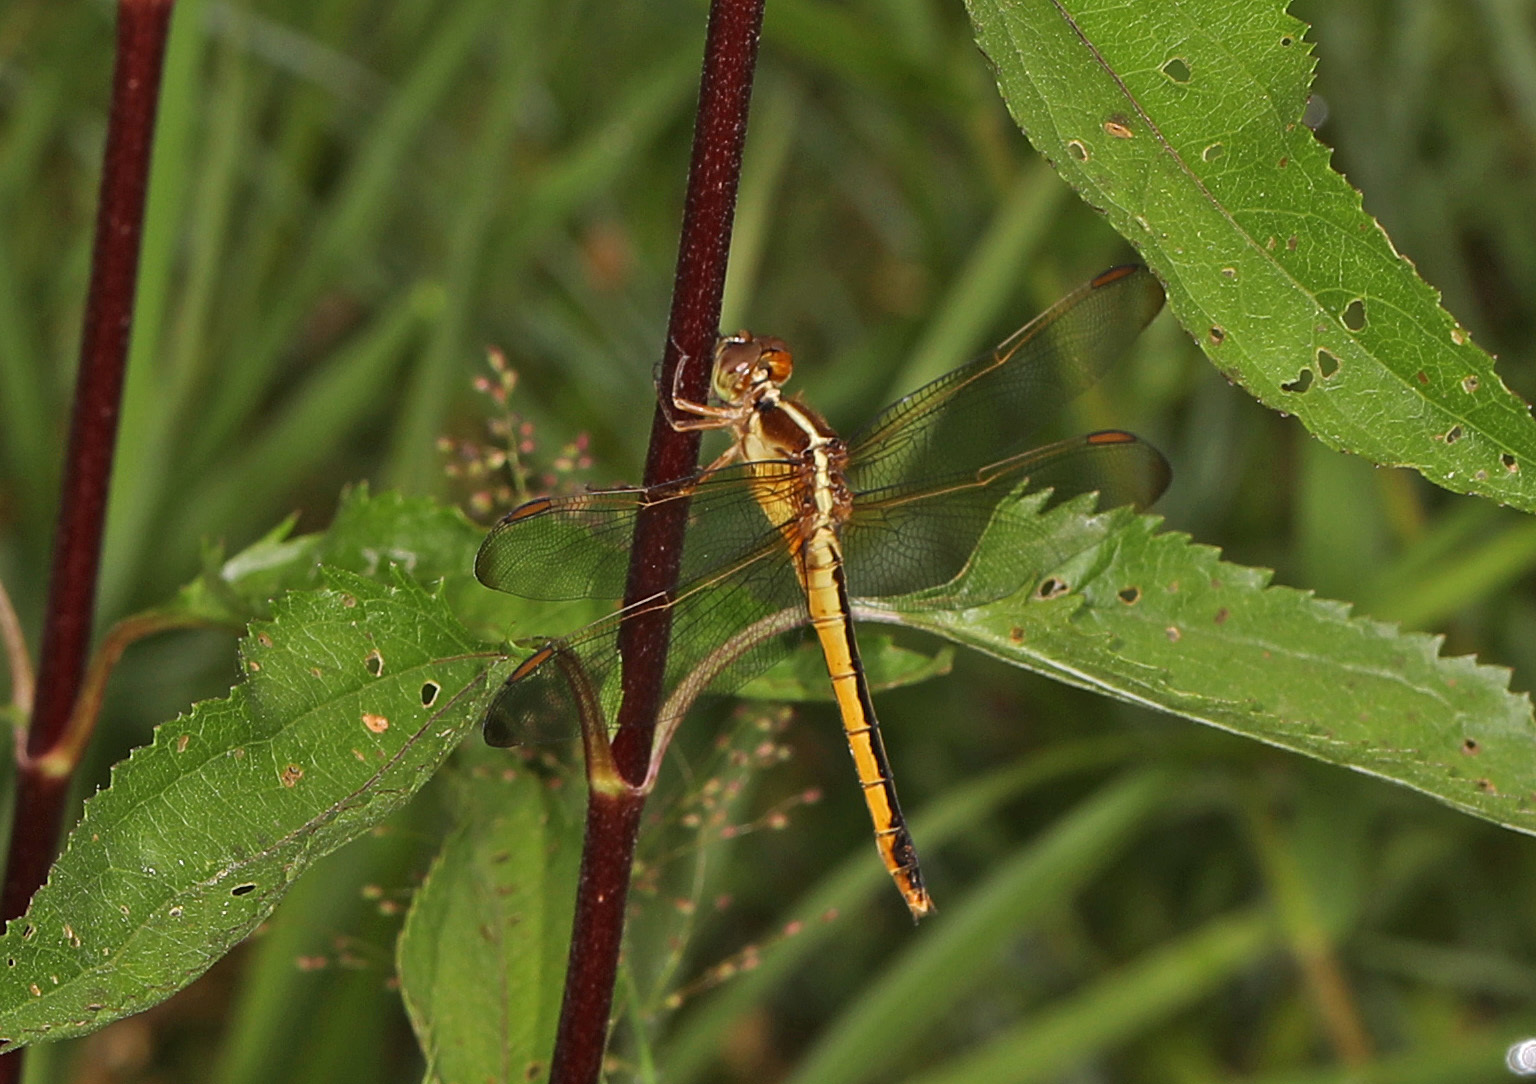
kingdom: Animalia
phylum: Arthropoda
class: Insecta
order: Odonata
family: Libellulidae
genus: Libellula
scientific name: Libellula needhami
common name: Needham's skimmer
